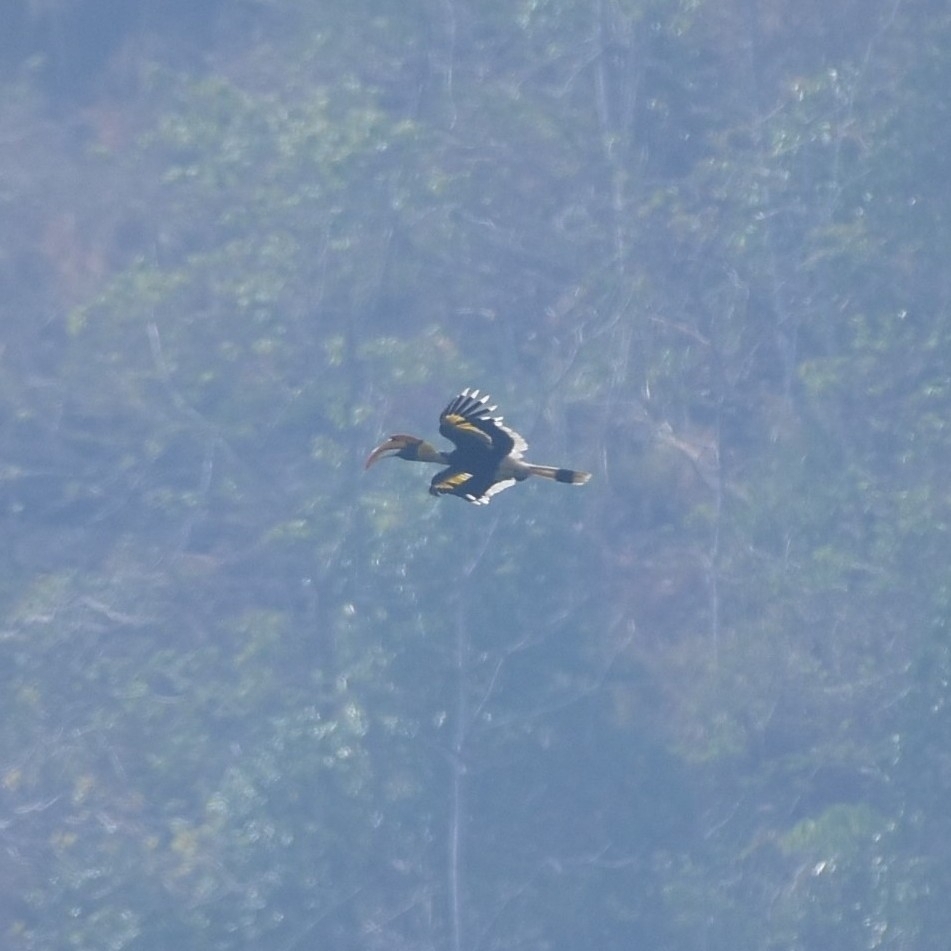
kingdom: Animalia
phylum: Chordata
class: Aves
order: Bucerotiformes
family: Bucerotidae
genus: Buceros
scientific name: Buceros bicornis
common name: Great hornbill
